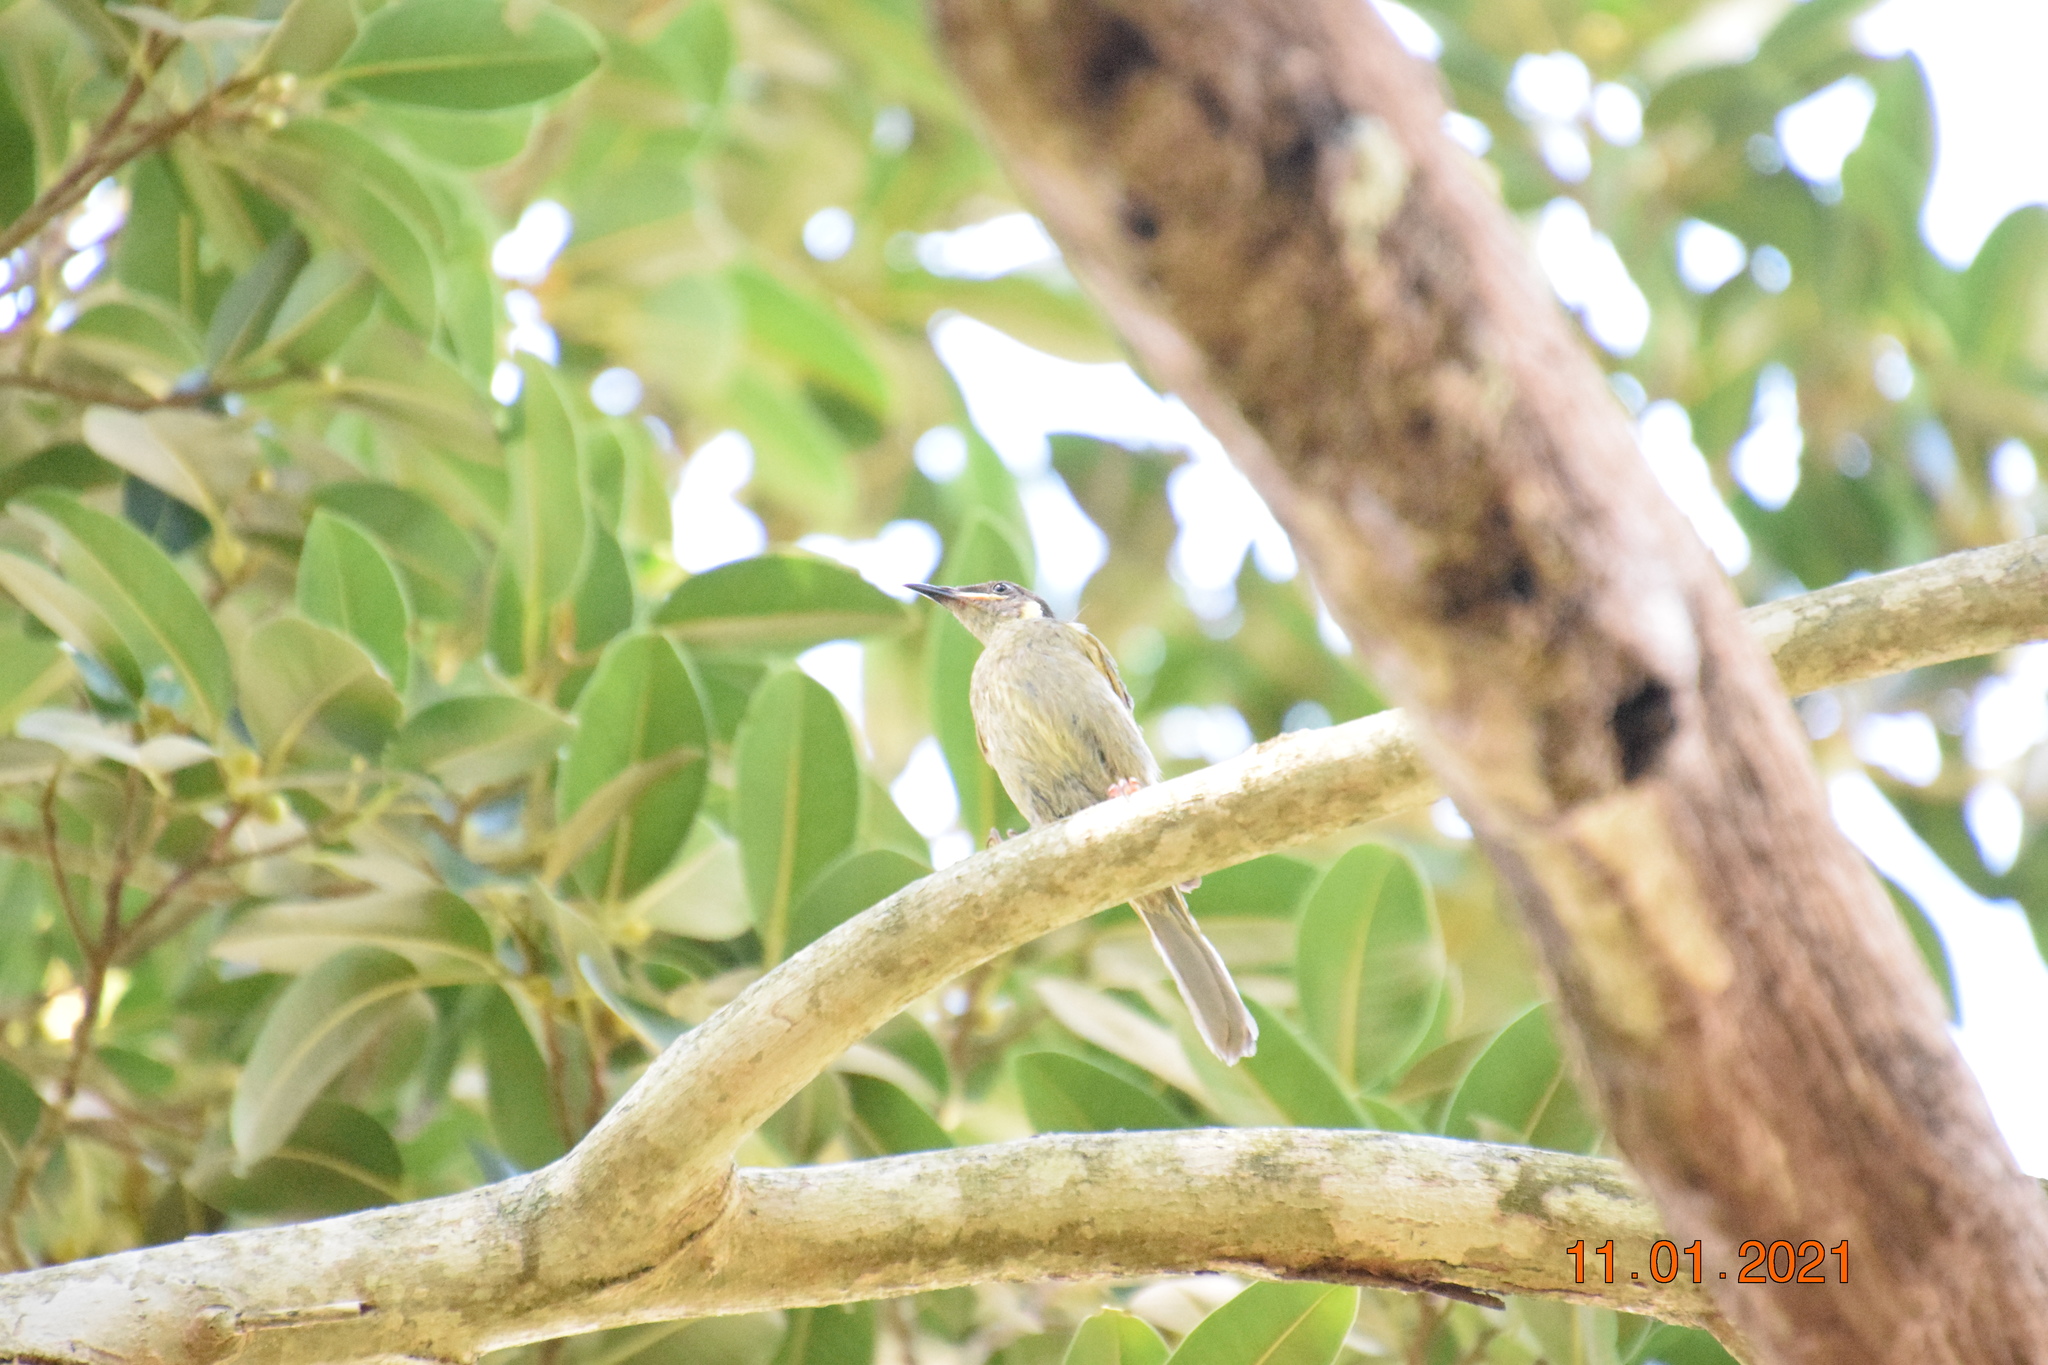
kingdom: Animalia
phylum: Chordata
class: Aves
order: Passeriformes
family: Meliphagidae
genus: Meliphaga
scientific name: Meliphaga lewinii
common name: Lewin's honeyeater
